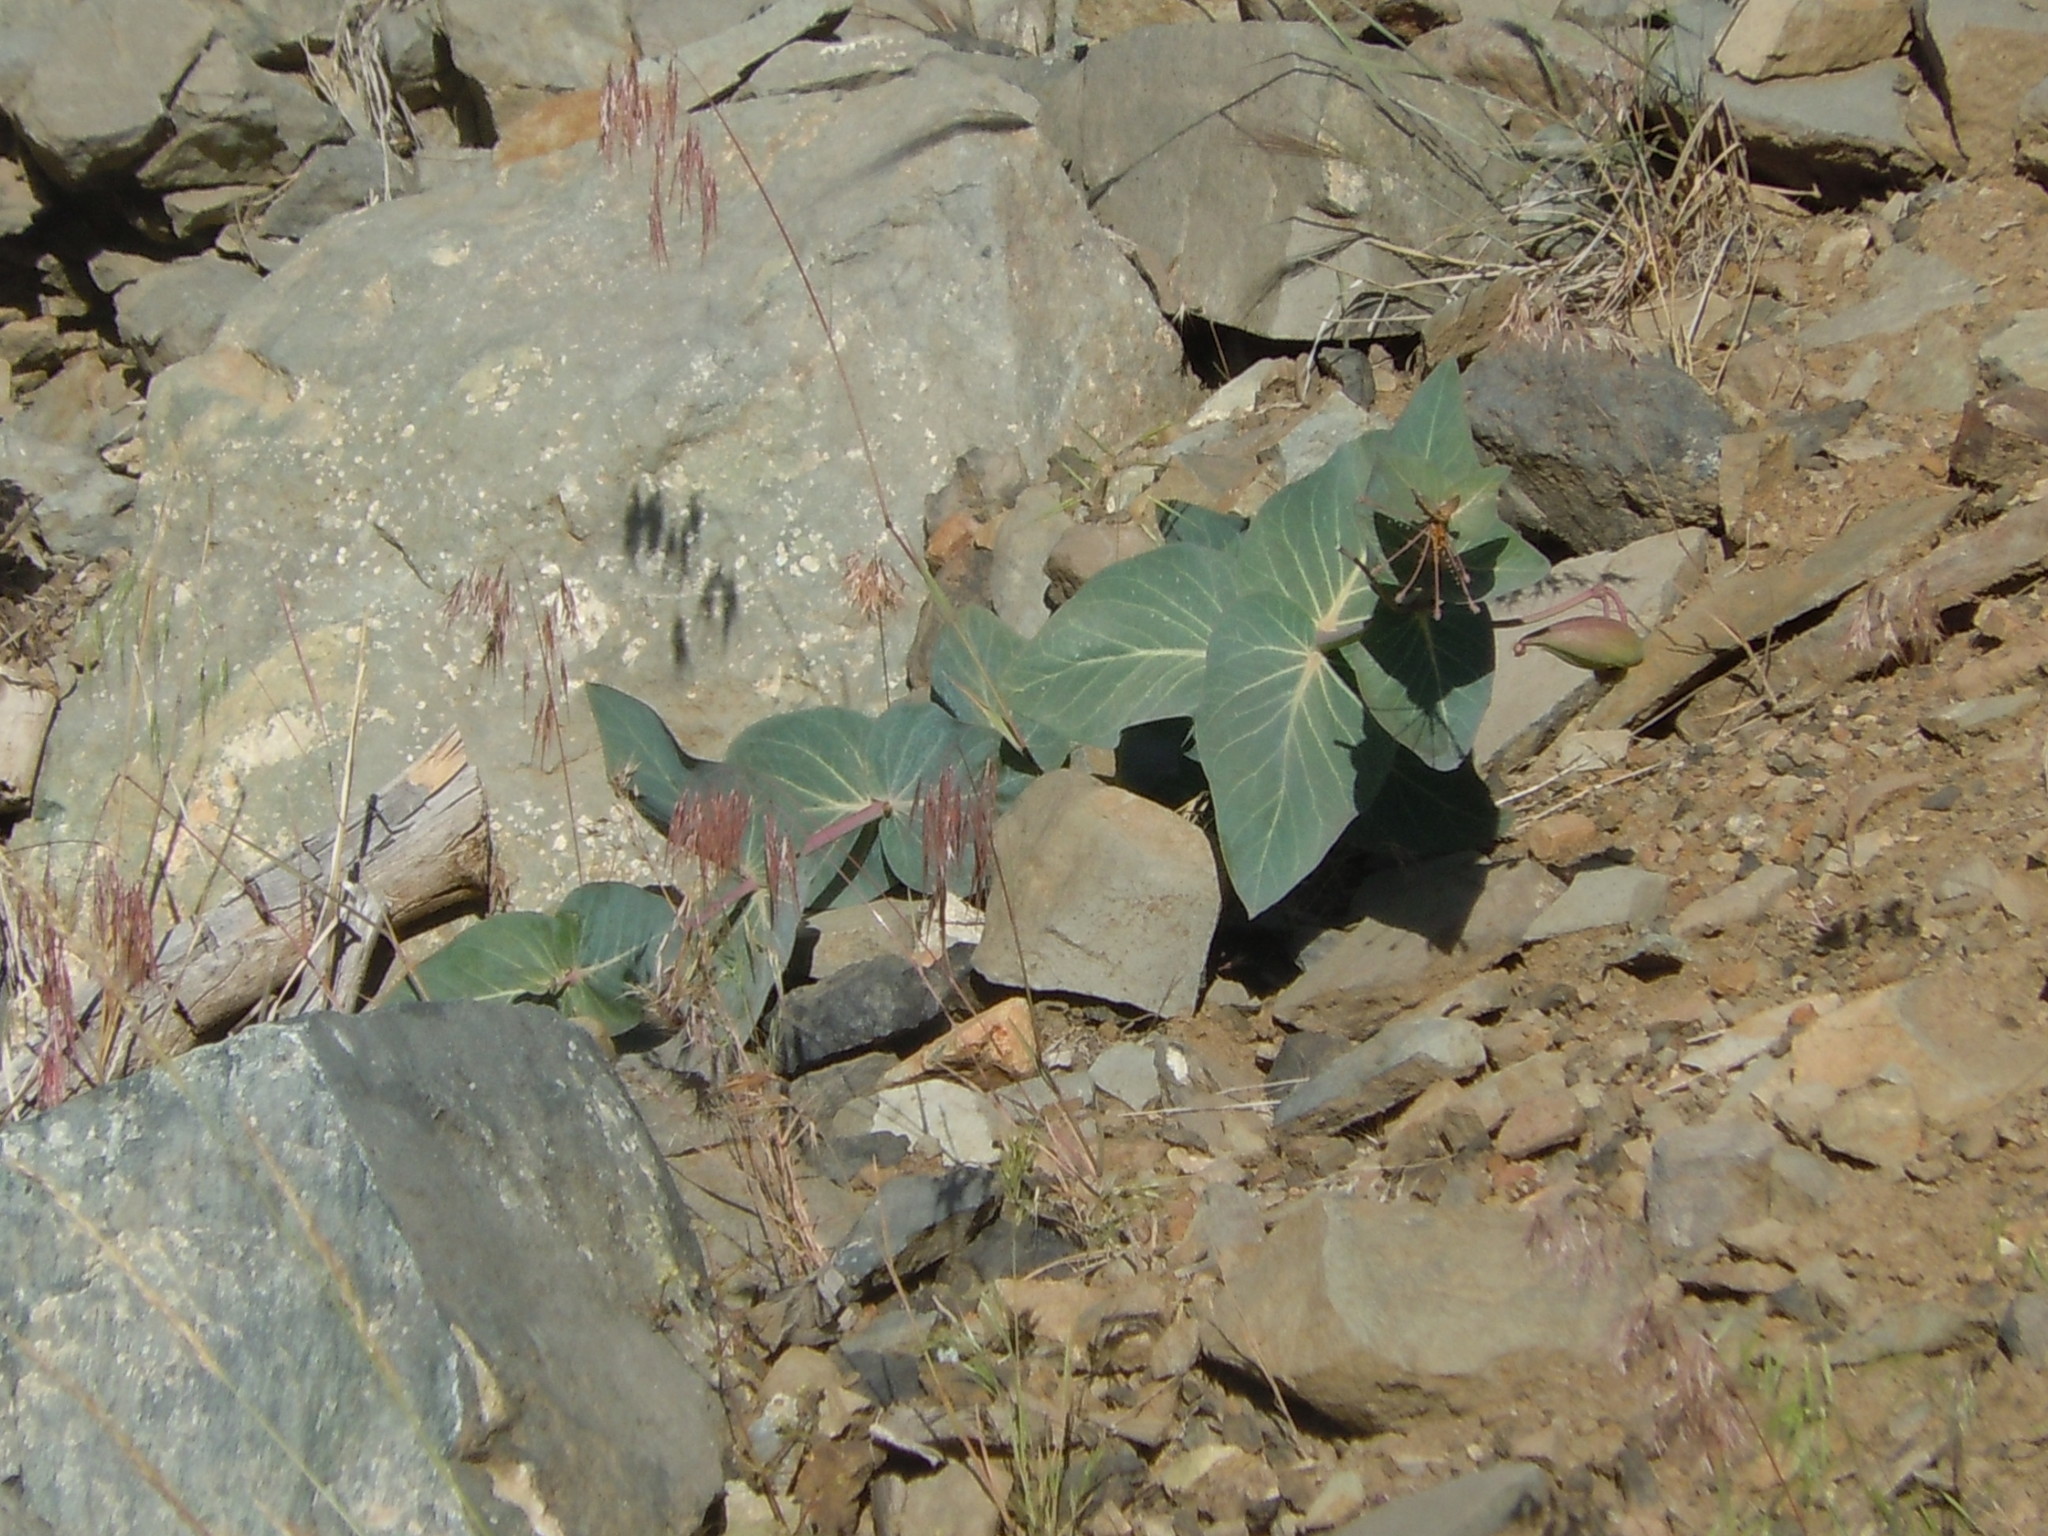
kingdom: Plantae
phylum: Tracheophyta
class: Magnoliopsida
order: Gentianales
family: Apocynaceae
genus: Asclepias
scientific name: Asclepias cordifolia
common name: Purple milkweed
